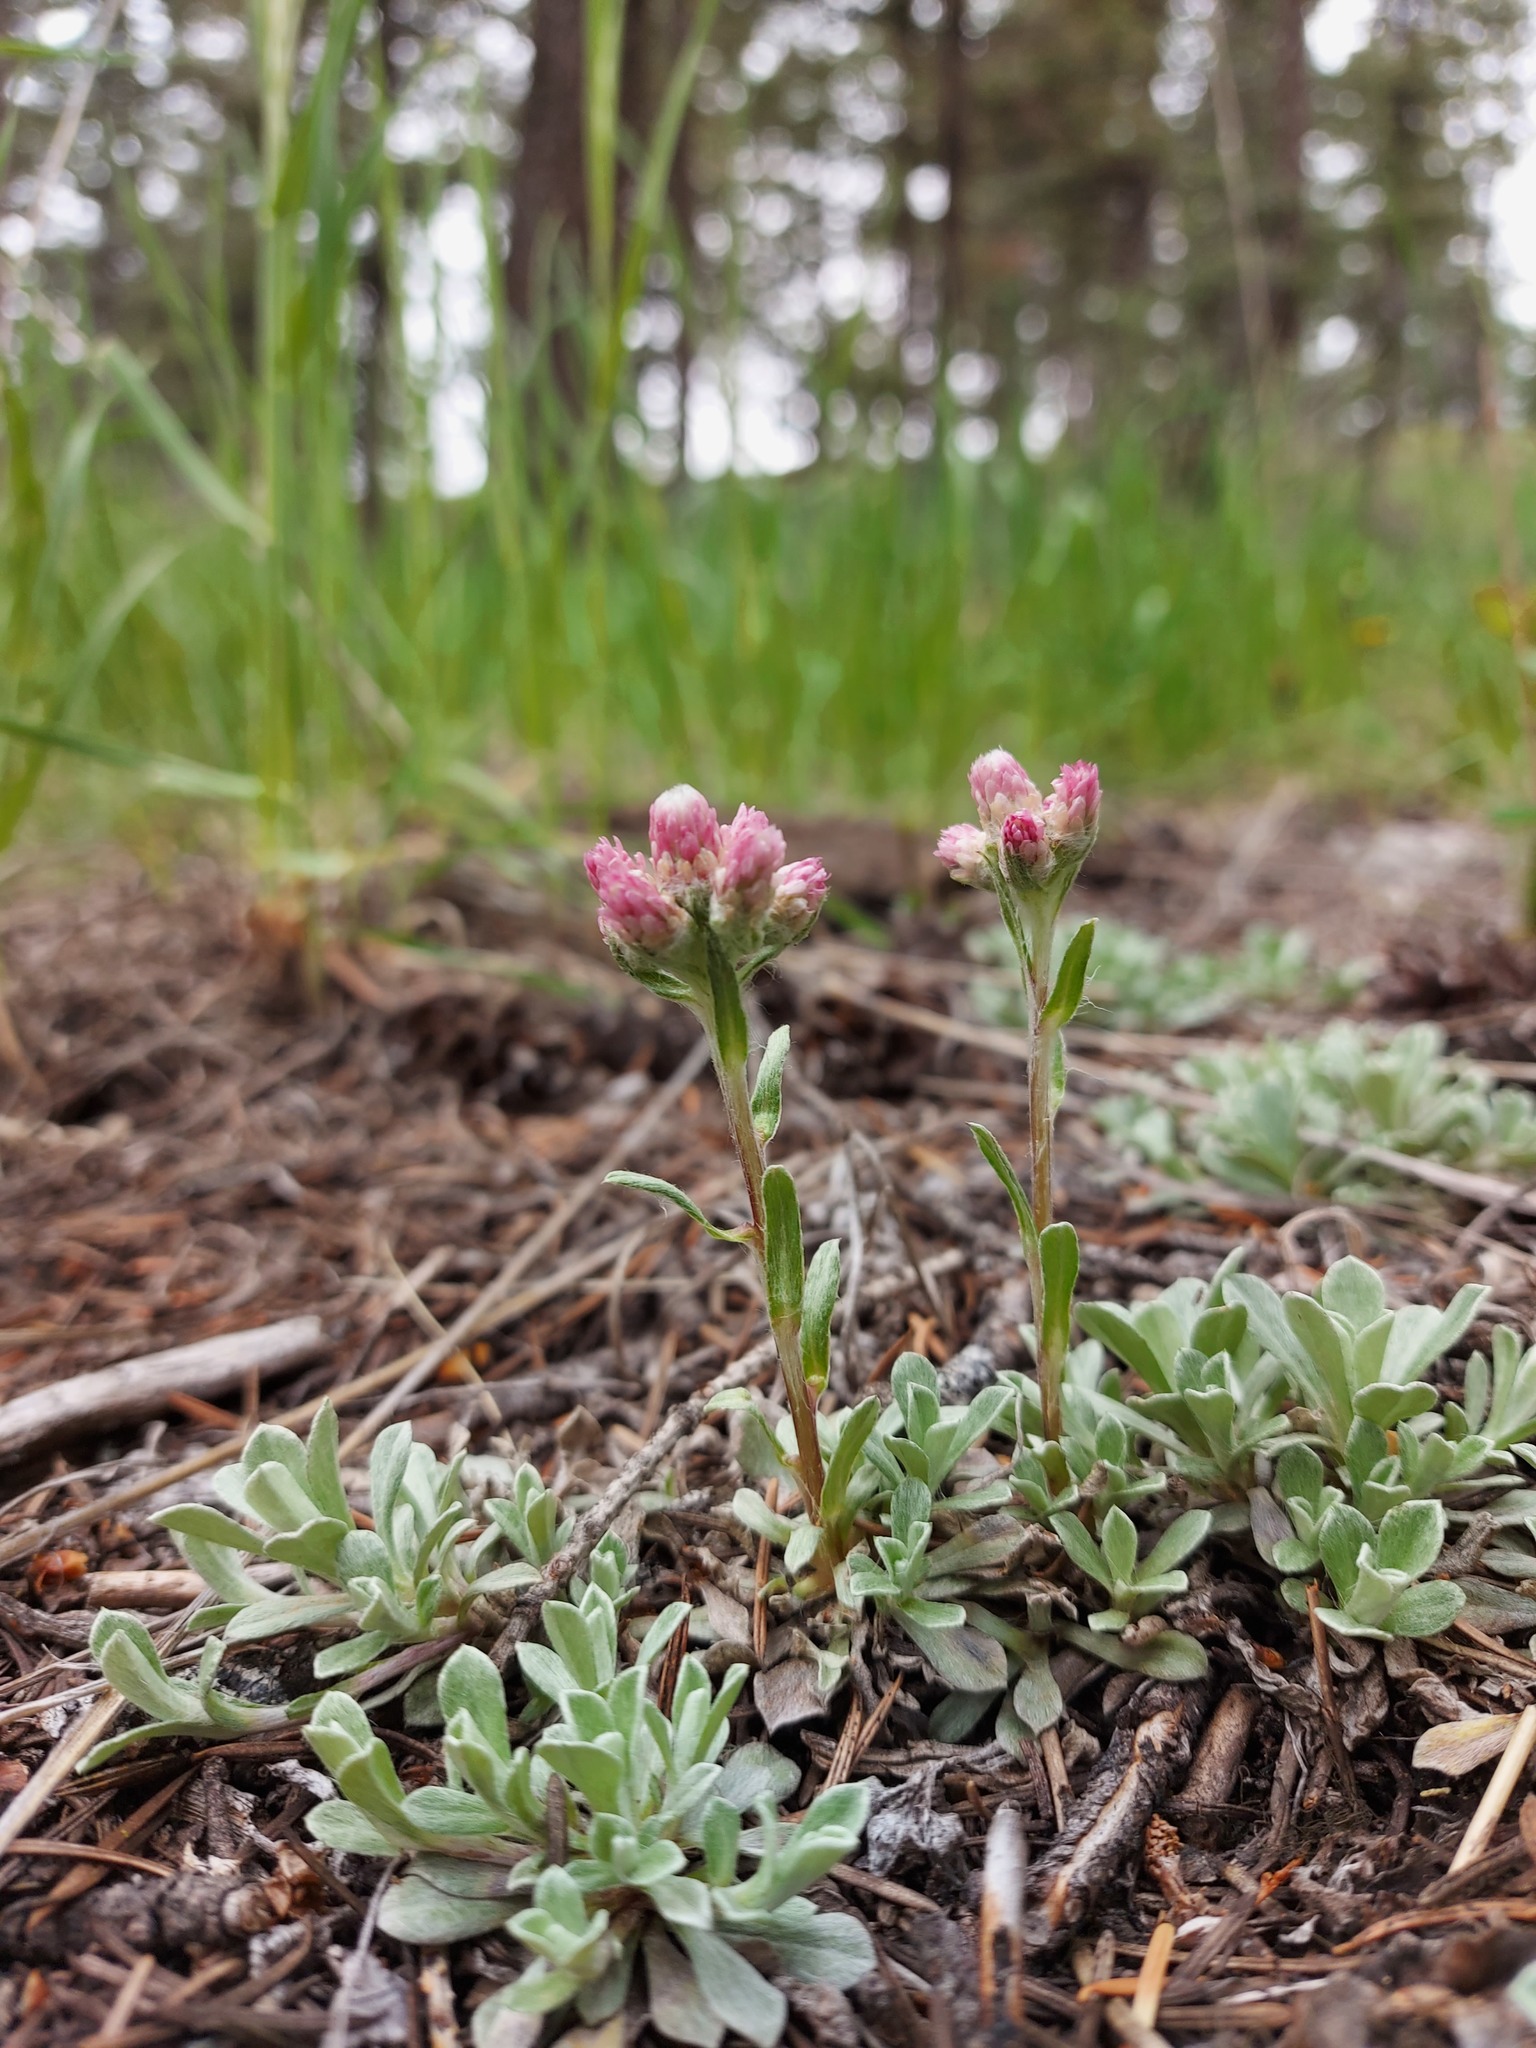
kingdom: Plantae
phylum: Tracheophyta
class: Magnoliopsida
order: Asterales
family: Asteraceae
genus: Antennaria
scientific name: Antennaria rosea
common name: Rosy pussytoes
